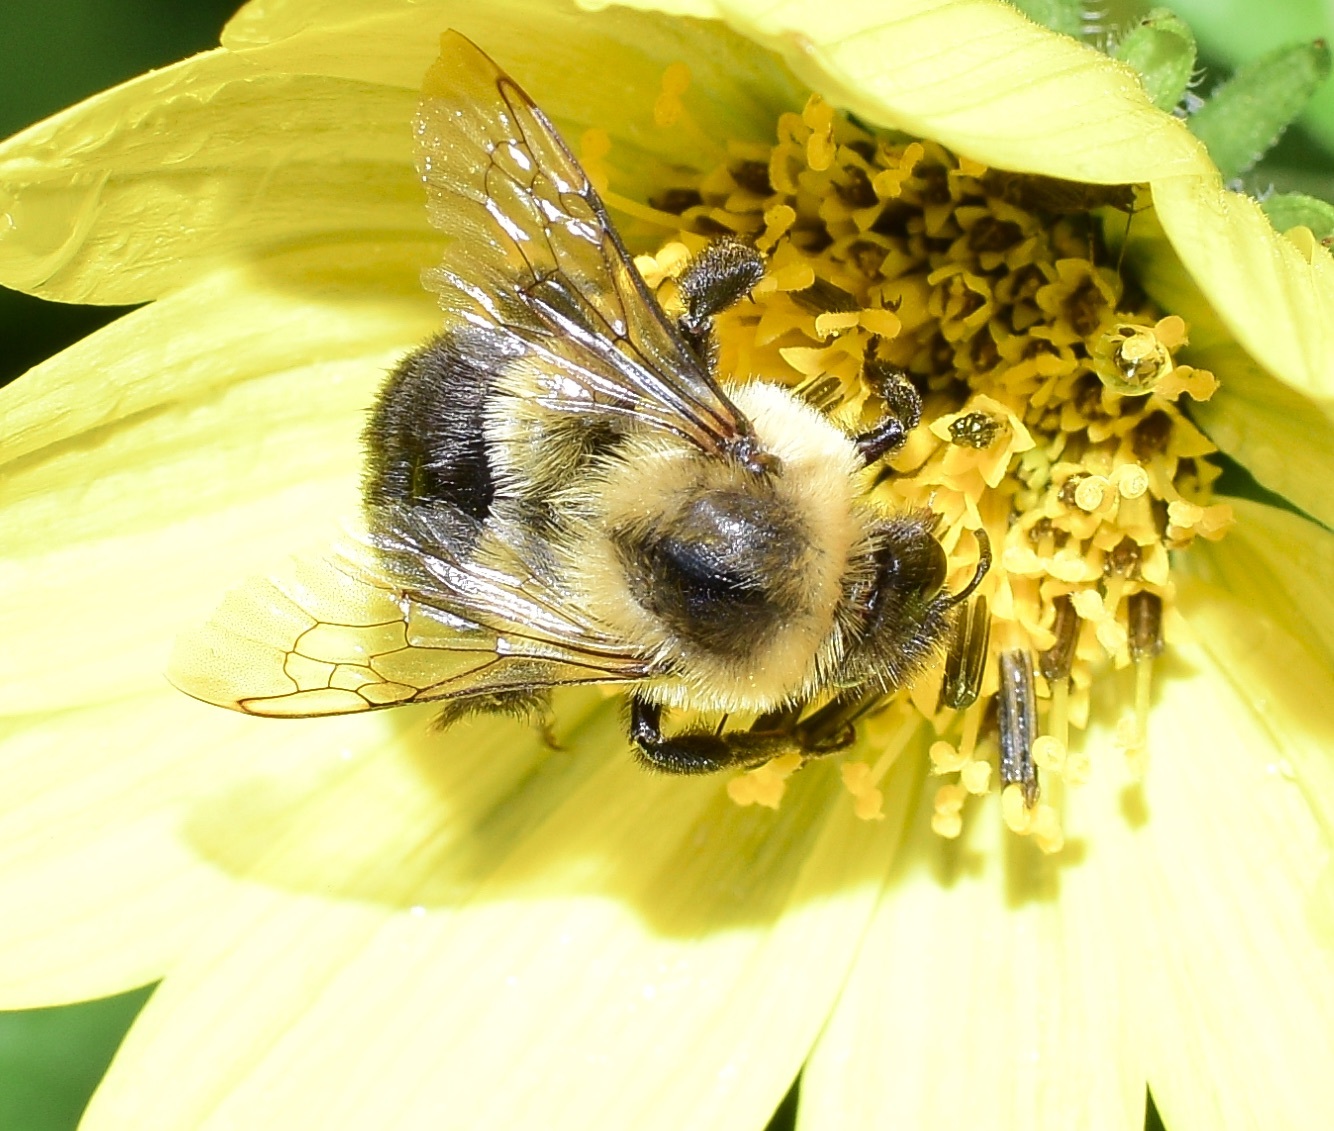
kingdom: Animalia
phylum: Arthropoda
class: Insecta
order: Hymenoptera
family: Apidae
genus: Bombus
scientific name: Bombus impatiens
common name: Common eastern bumble bee
